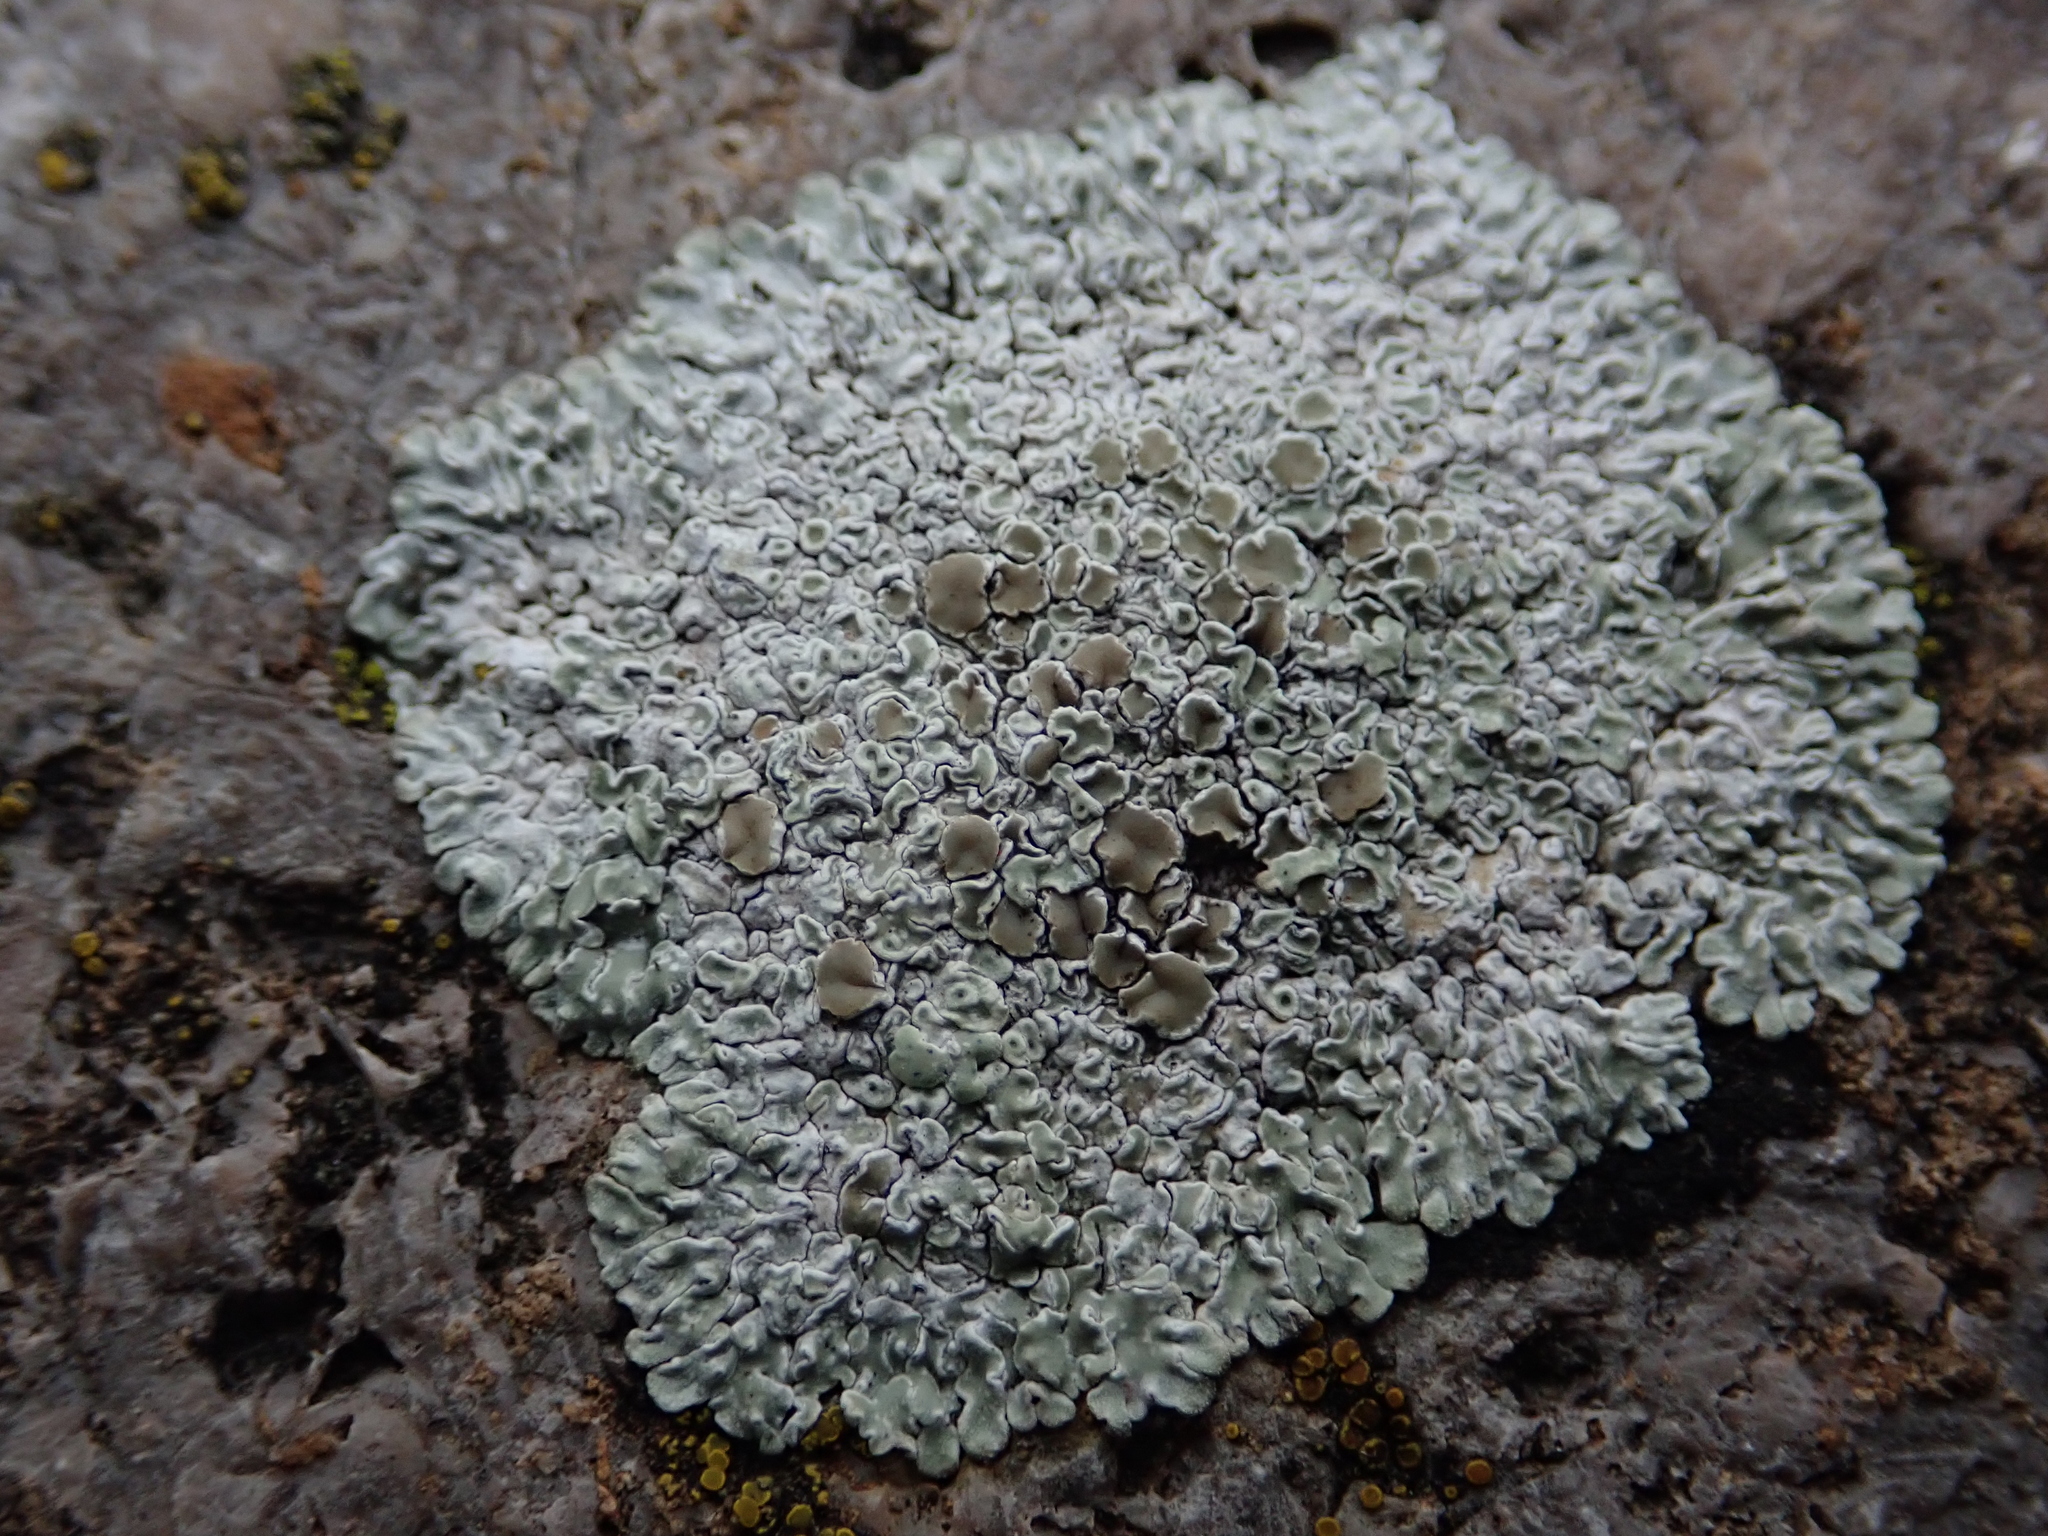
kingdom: Fungi
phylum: Ascomycota
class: Lecanoromycetes
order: Lecanorales
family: Lecanoraceae
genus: Protoparmeliopsis
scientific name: Protoparmeliopsis muralis
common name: Stonewall rim lichen
